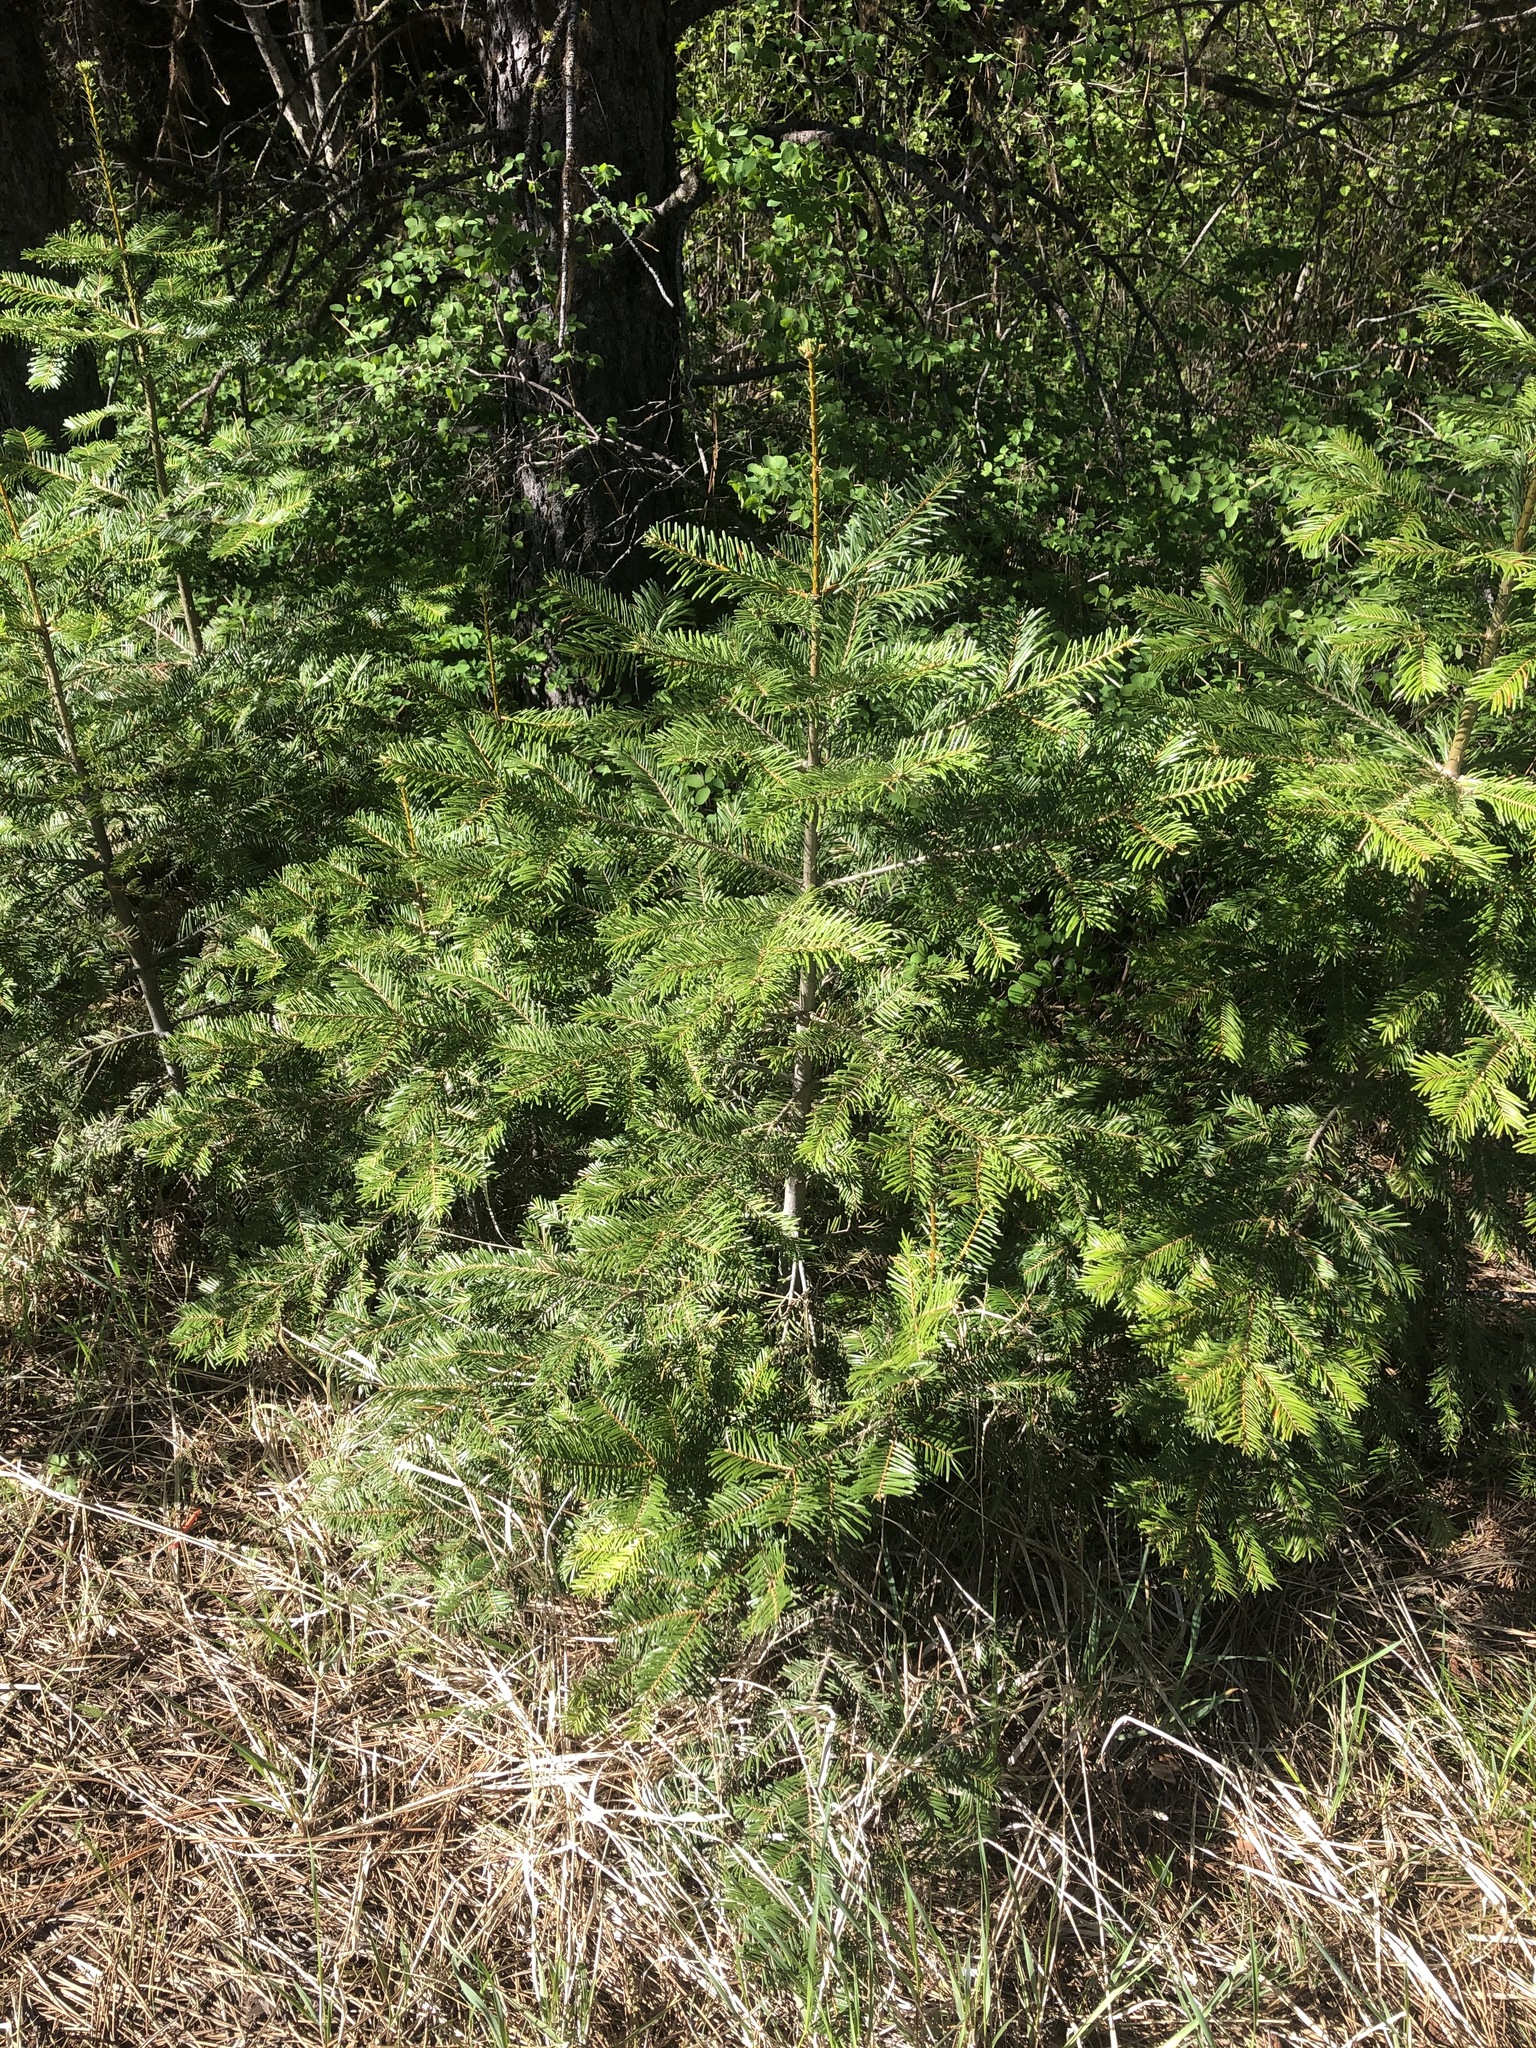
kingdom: Plantae
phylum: Tracheophyta
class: Pinopsida
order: Pinales
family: Pinaceae
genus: Abies
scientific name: Abies concolor
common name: Colorado fir
